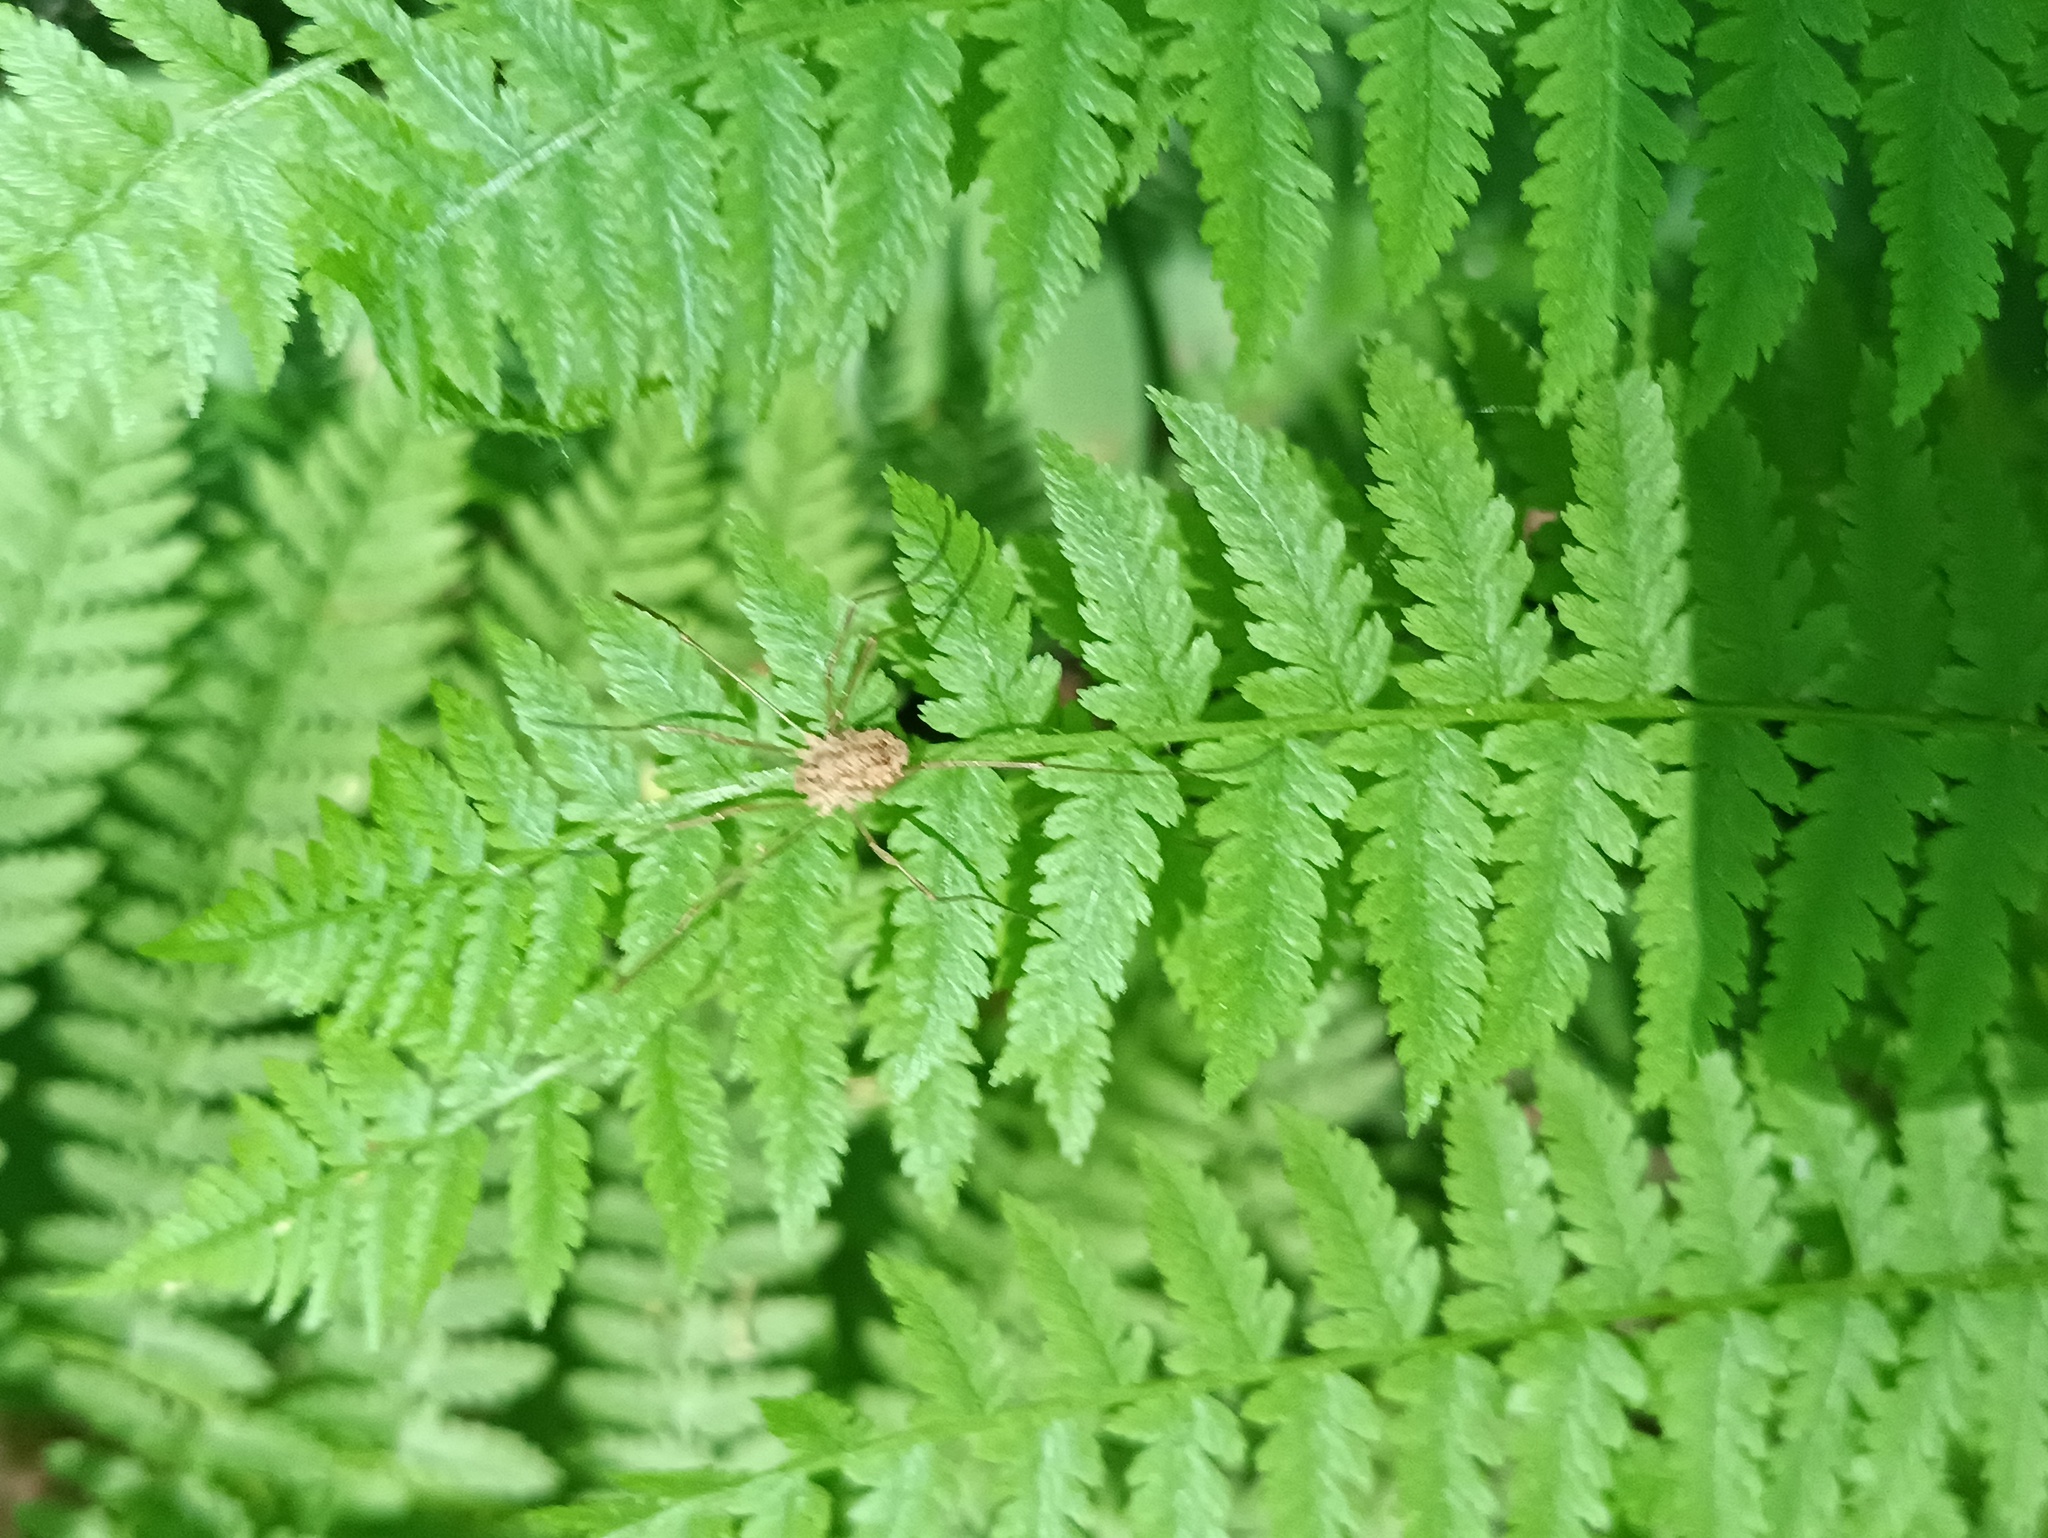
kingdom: Animalia
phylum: Arthropoda
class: Arachnida
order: Opiliones
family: Phalangiidae
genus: Rilaena
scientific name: Rilaena triangularis
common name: Spring harvestman
